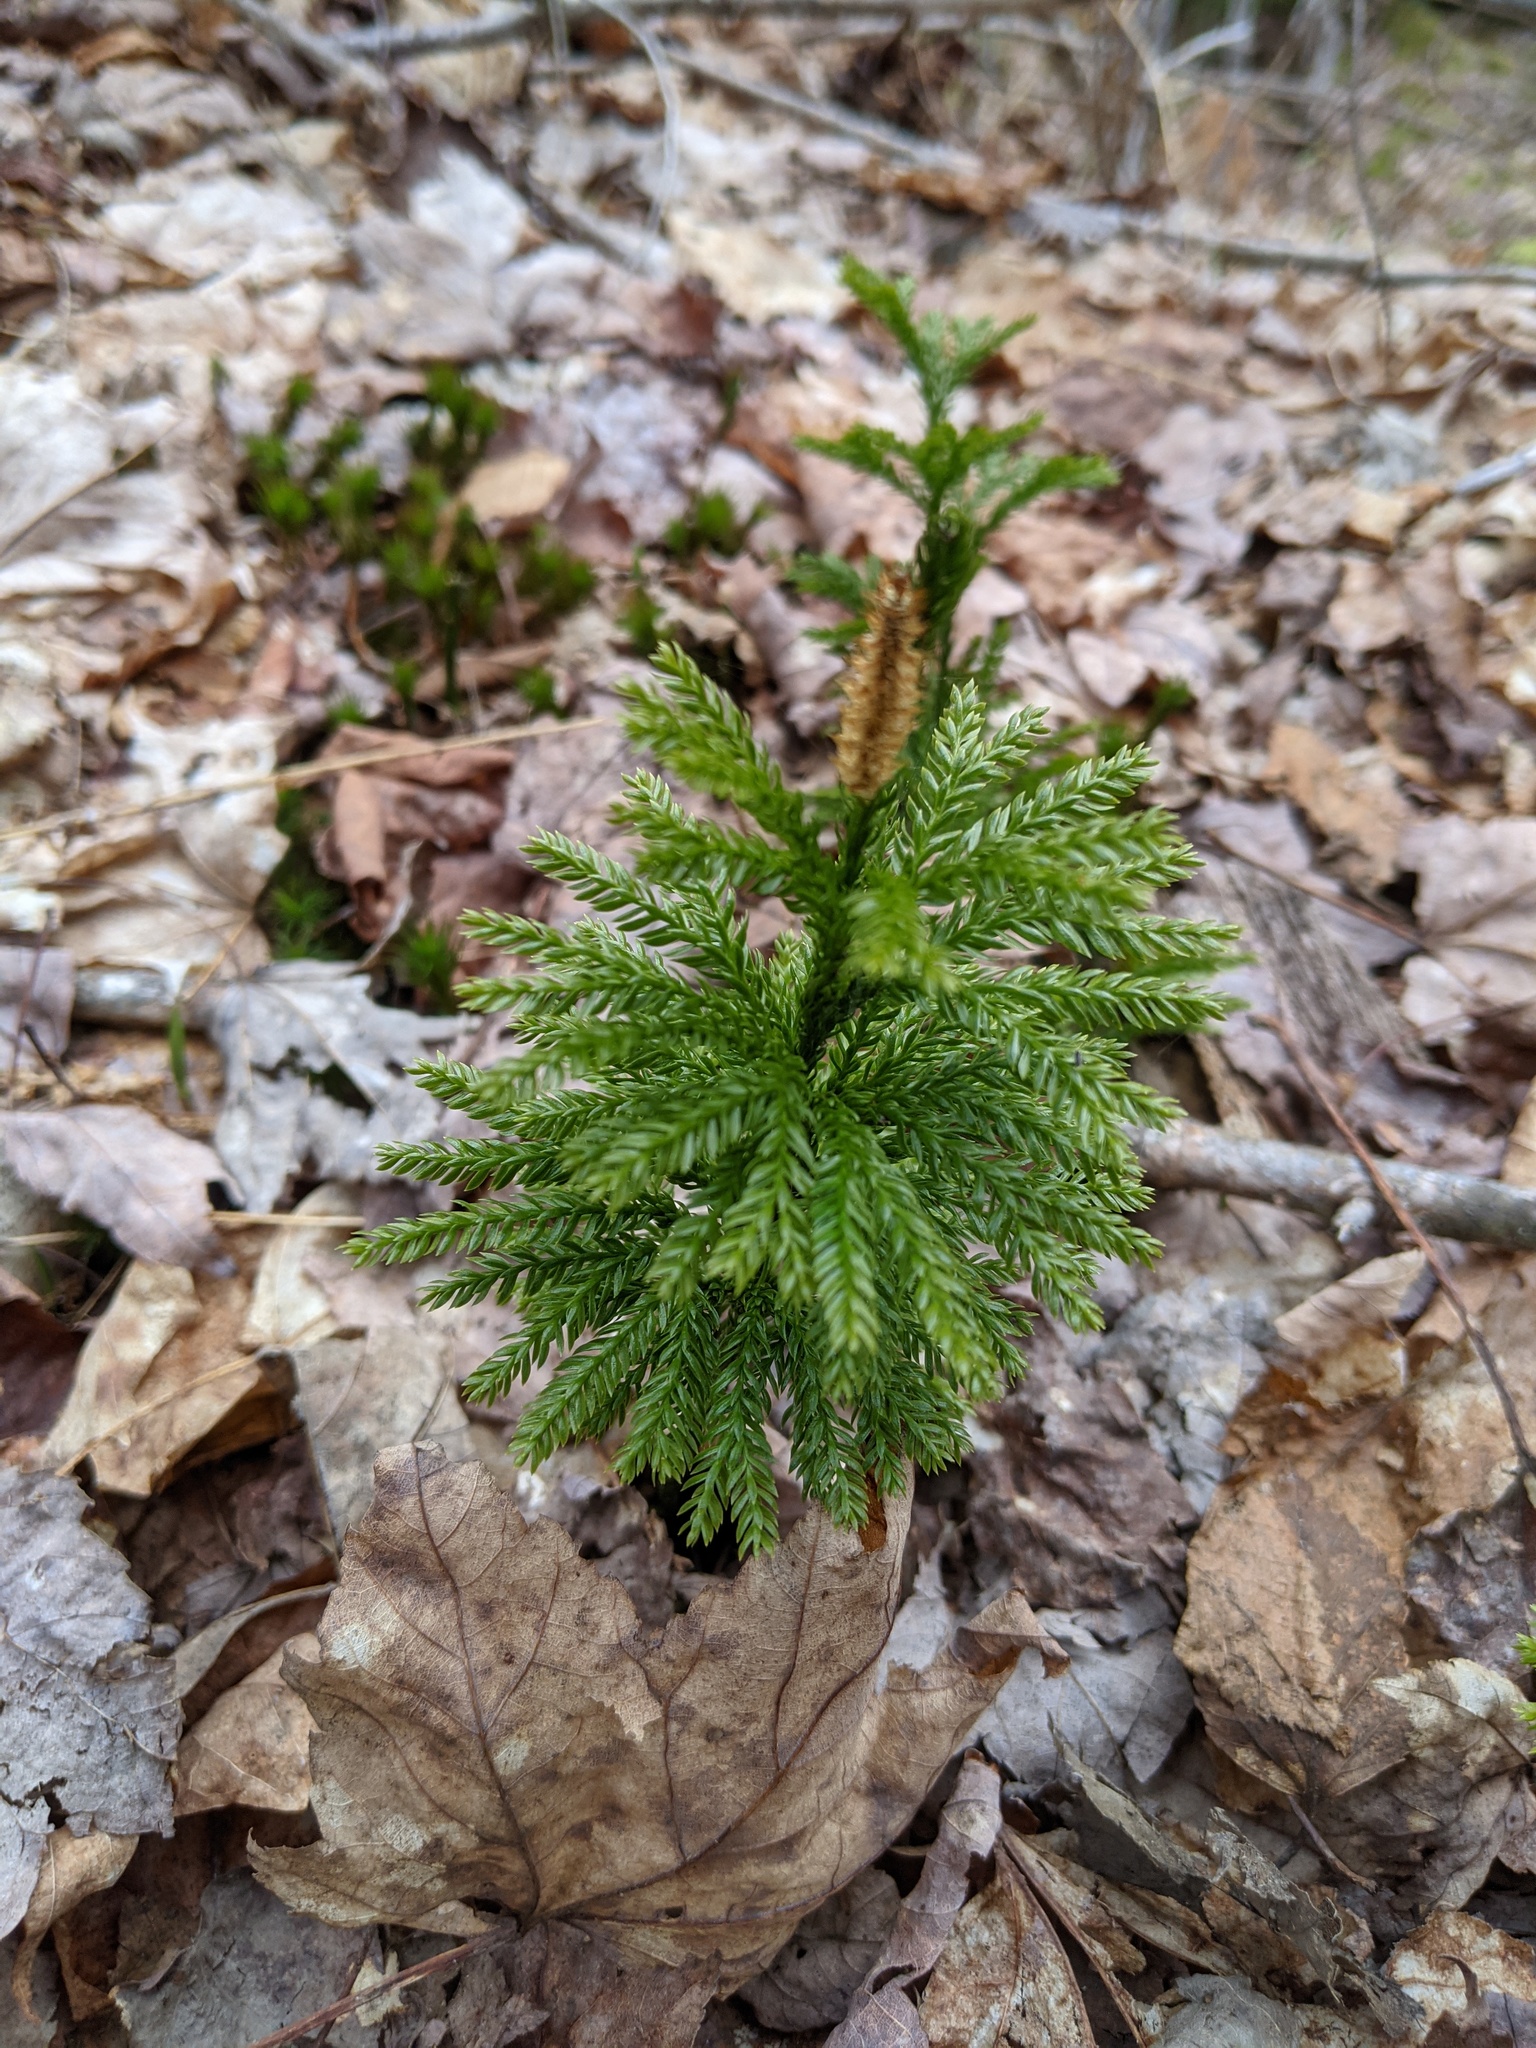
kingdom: Plantae
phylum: Tracheophyta
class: Lycopodiopsida
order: Lycopodiales
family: Lycopodiaceae
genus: Dendrolycopodium
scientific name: Dendrolycopodium hickeyi
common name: Hickey's clubmoss
